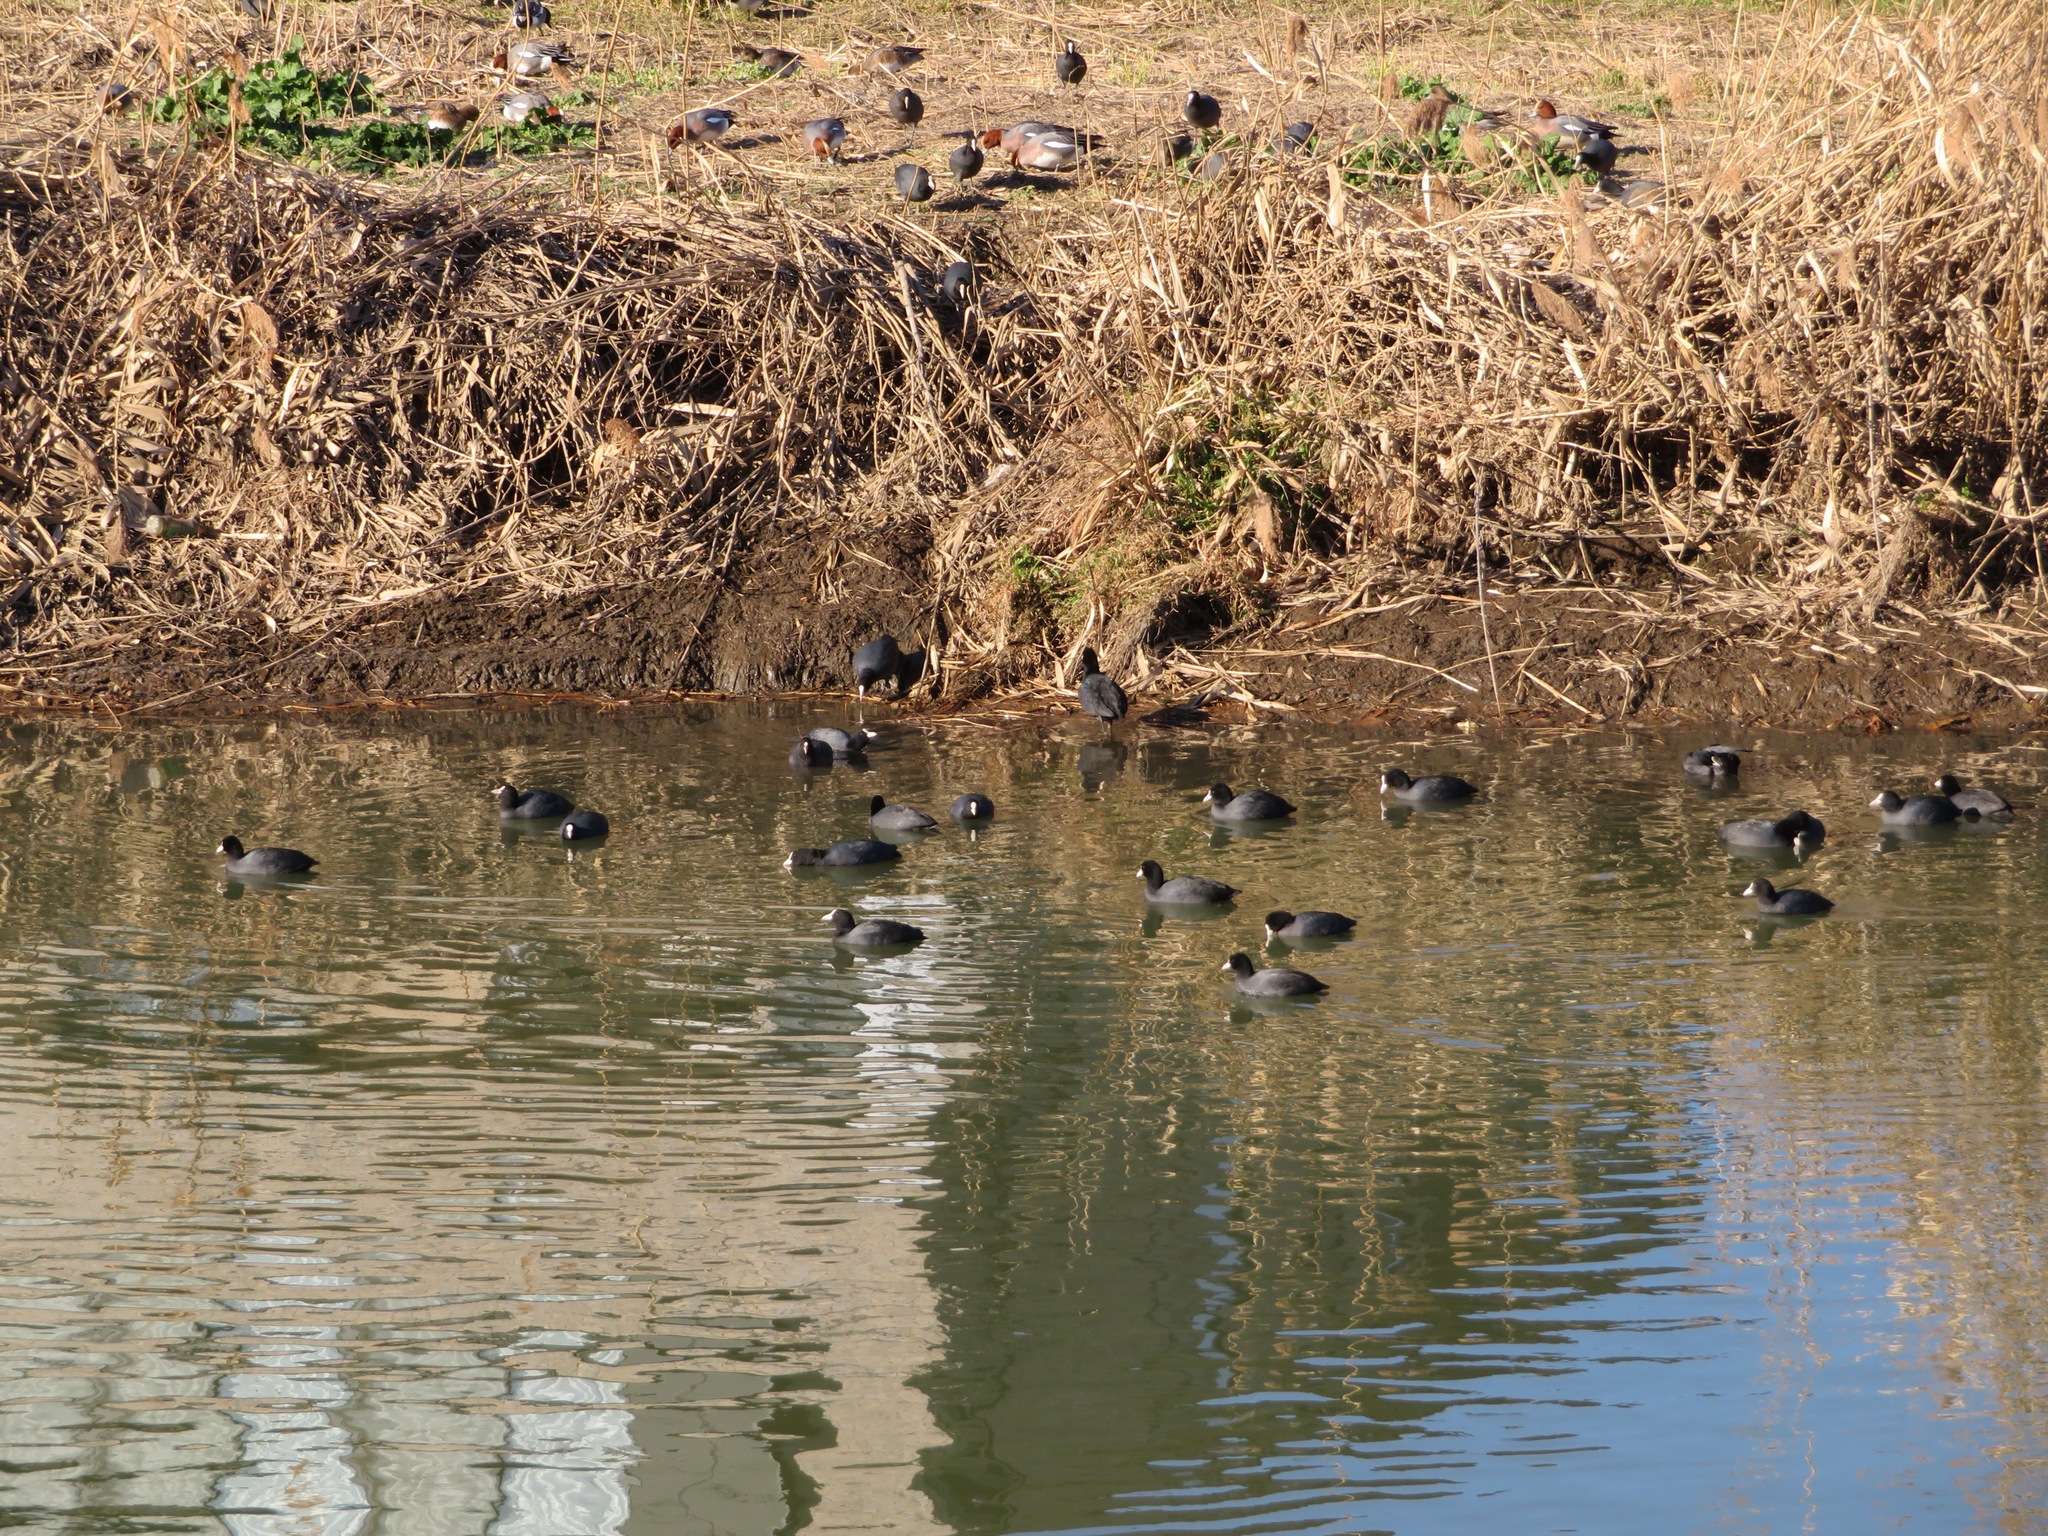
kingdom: Animalia
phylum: Chordata
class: Aves
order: Gruiformes
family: Rallidae
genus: Fulica
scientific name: Fulica atra
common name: Eurasian coot
